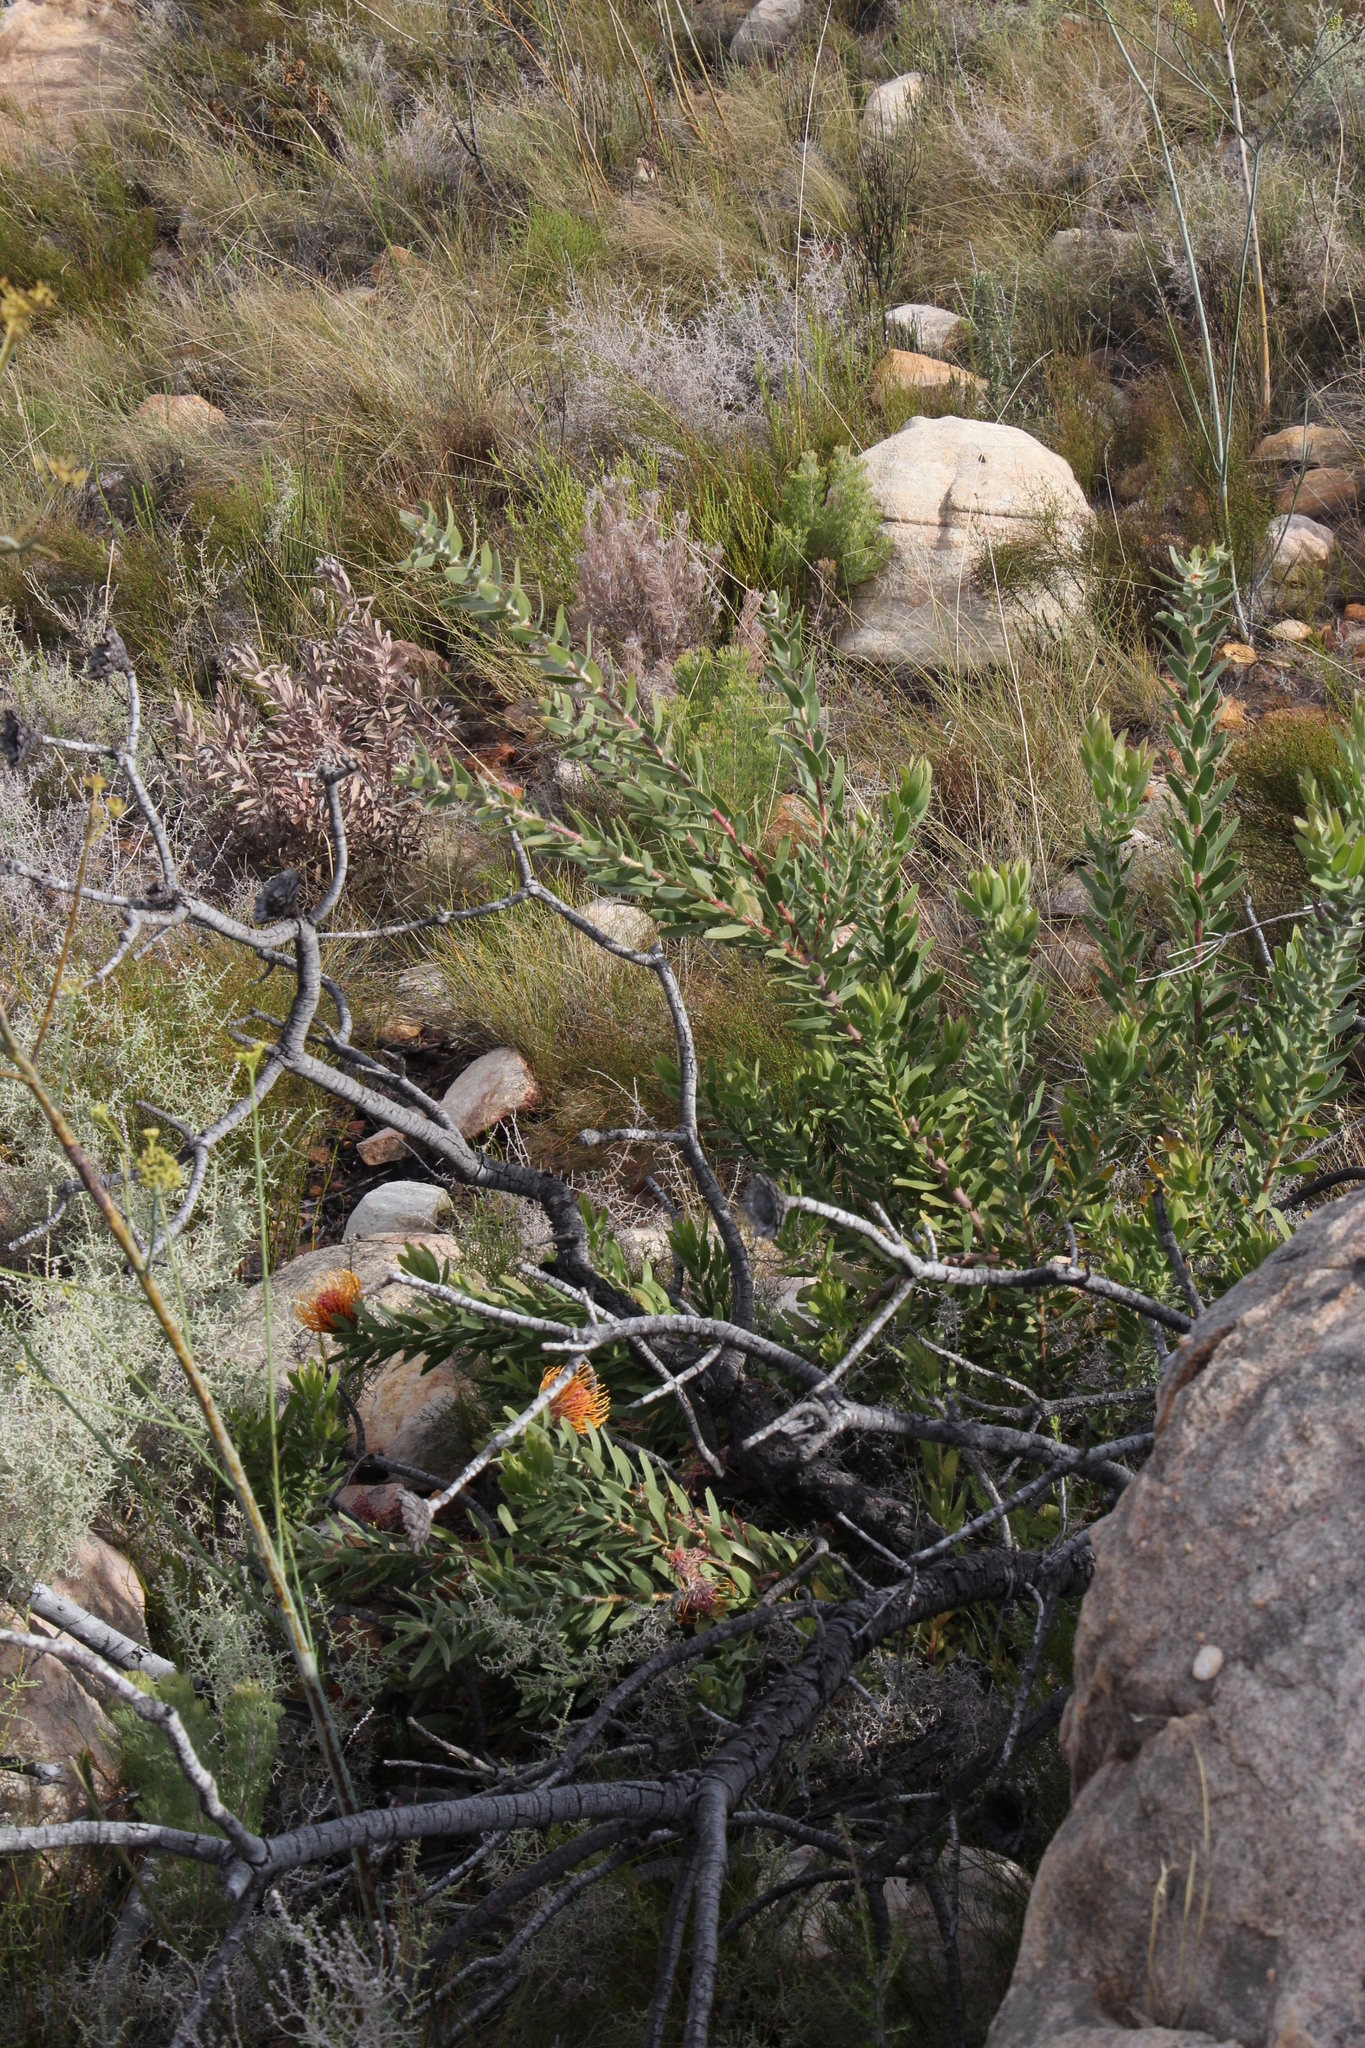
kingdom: Plantae
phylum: Tracheophyta
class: Magnoliopsida
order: Proteales
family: Proteaceae
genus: Leucospermum
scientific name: Leucospermum vestitum
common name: Silky-hair pincushion
